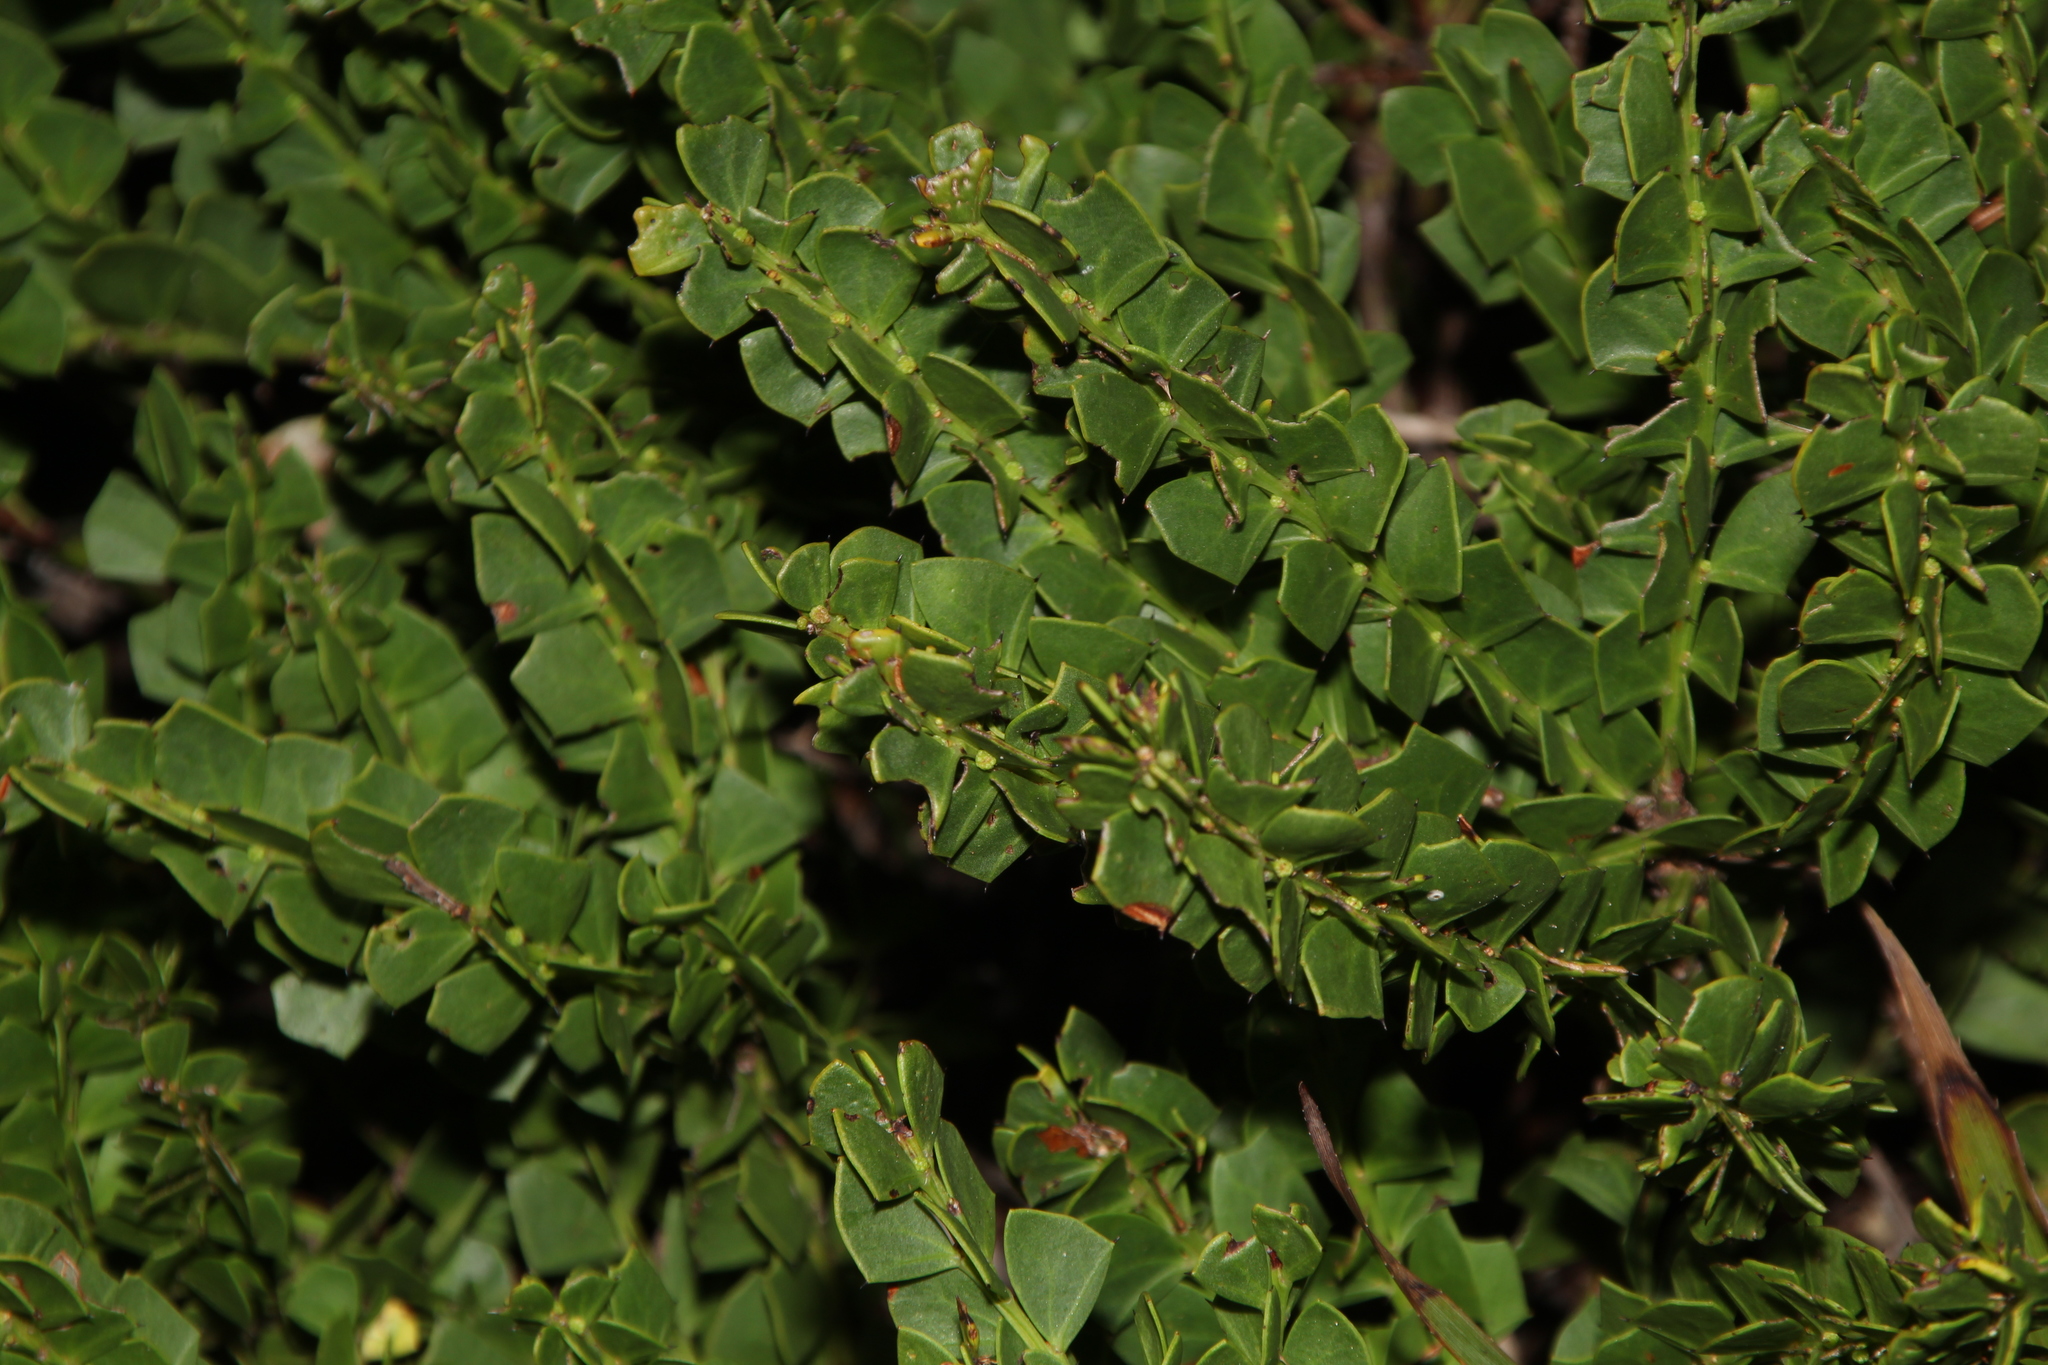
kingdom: Plantae
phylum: Tracheophyta
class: Magnoliopsida
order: Fabales
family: Fabaceae
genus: Acacia
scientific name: Acacia trapezoidea
